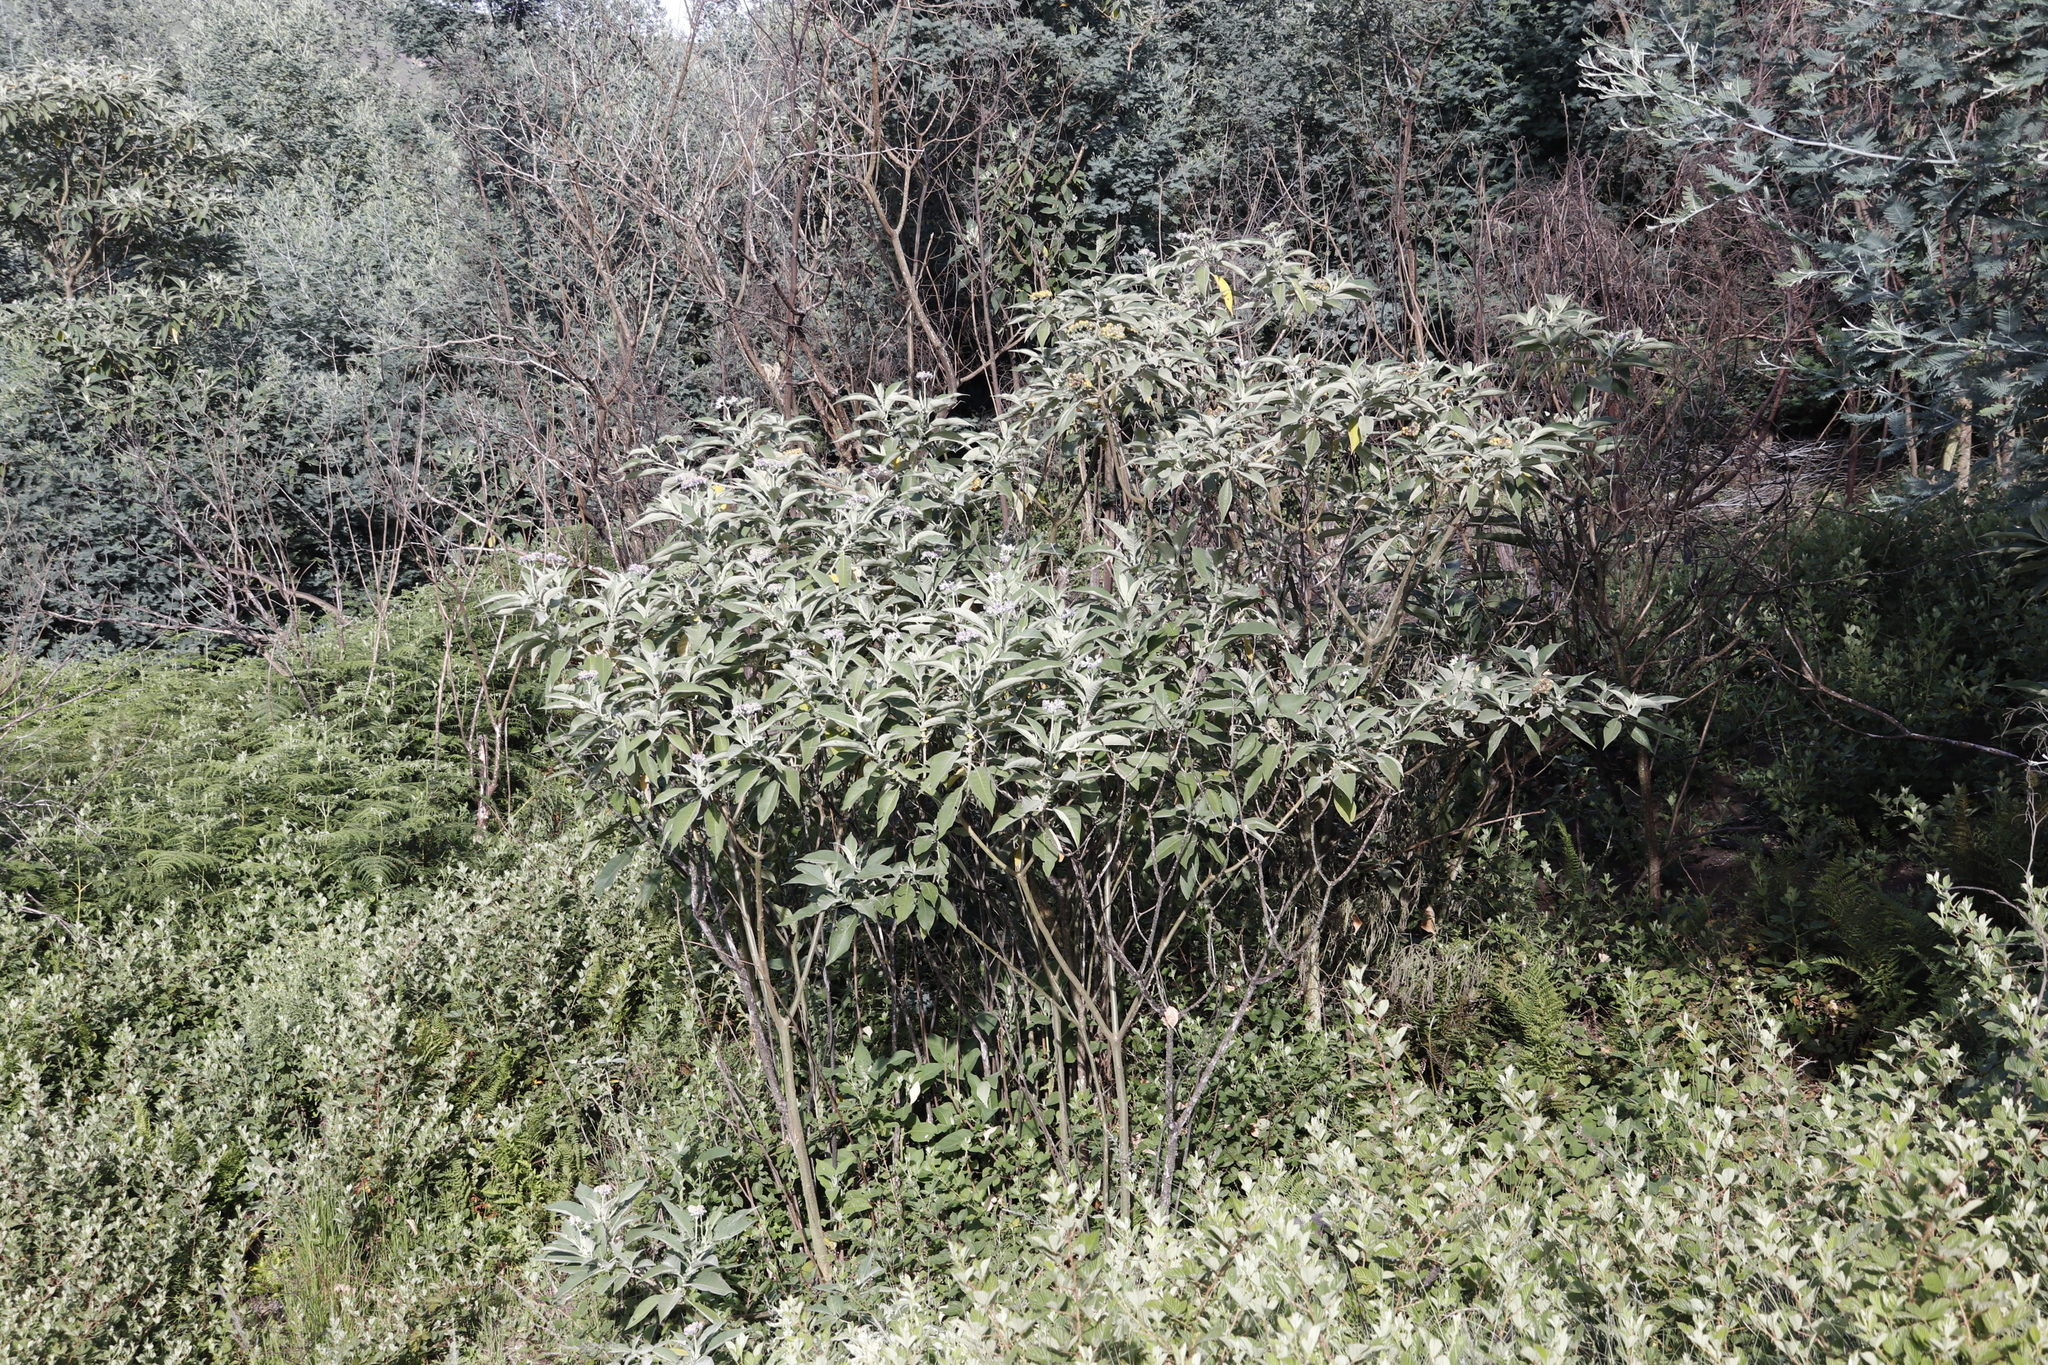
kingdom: Plantae
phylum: Tracheophyta
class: Magnoliopsida
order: Solanales
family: Solanaceae
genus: Solanum
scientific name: Solanum mauritianum
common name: Earleaf nightshade
